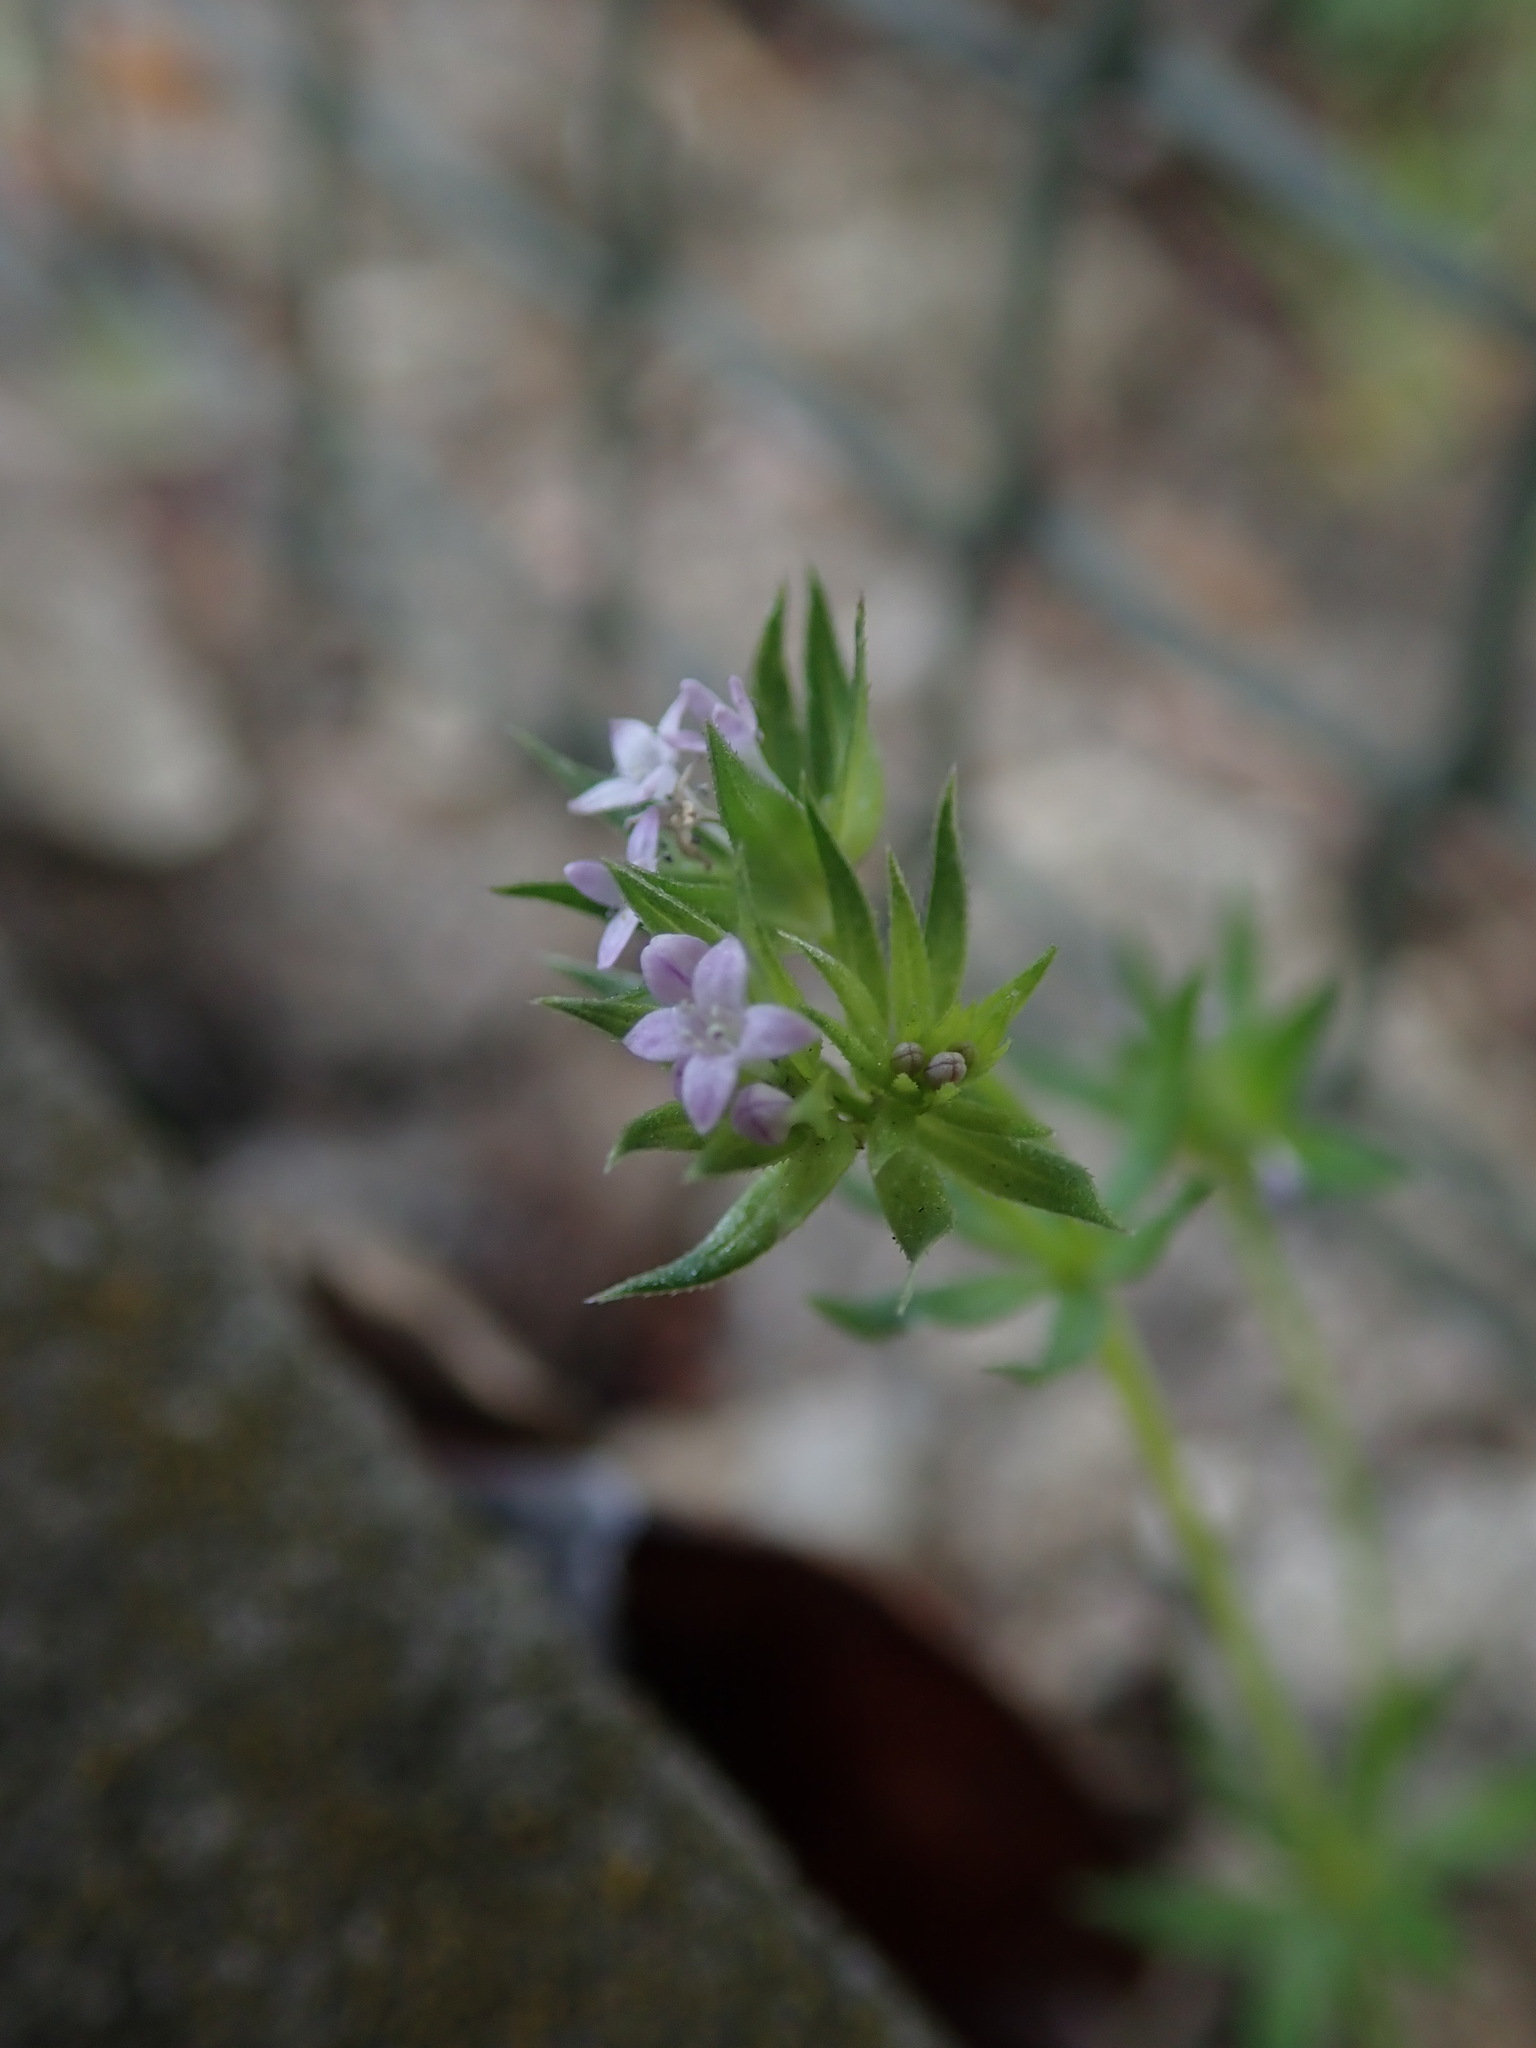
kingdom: Plantae
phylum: Tracheophyta
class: Magnoliopsida
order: Gentianales
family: Rubiaceae
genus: Sherardia
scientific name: Sherardia arvensis
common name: Field madder
